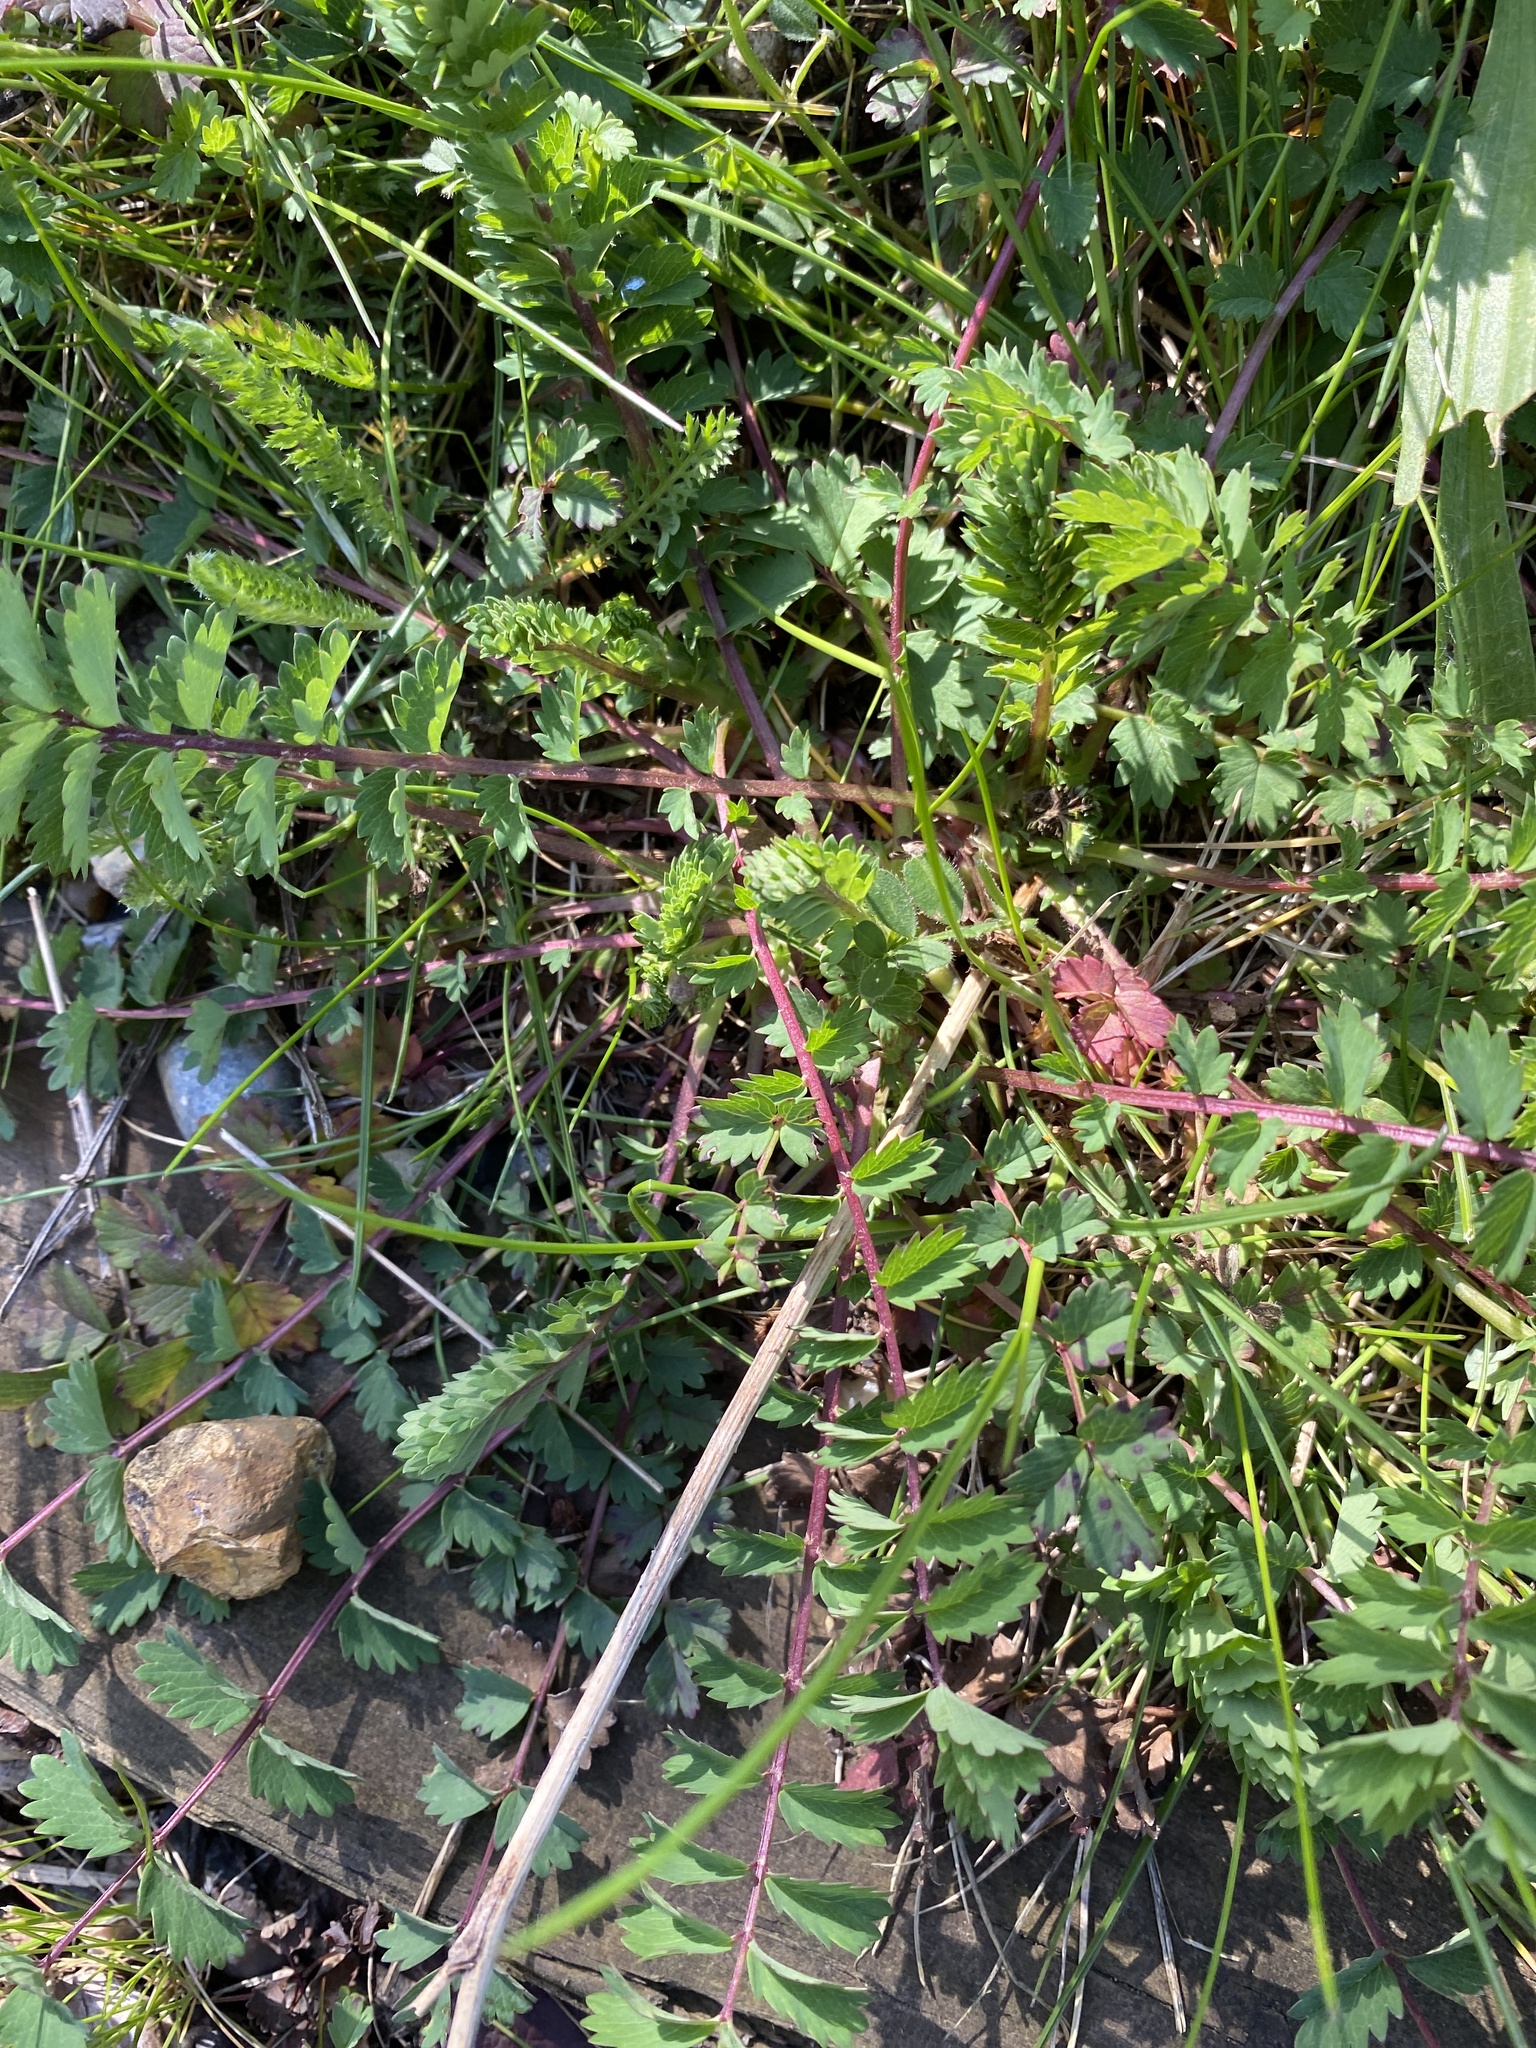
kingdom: Plantae
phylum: Tracheophyta
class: Magnoliopsida
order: Rosales
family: Rosaceae
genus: Poterium
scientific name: Poterium sanguisorba
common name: Salad burnet
